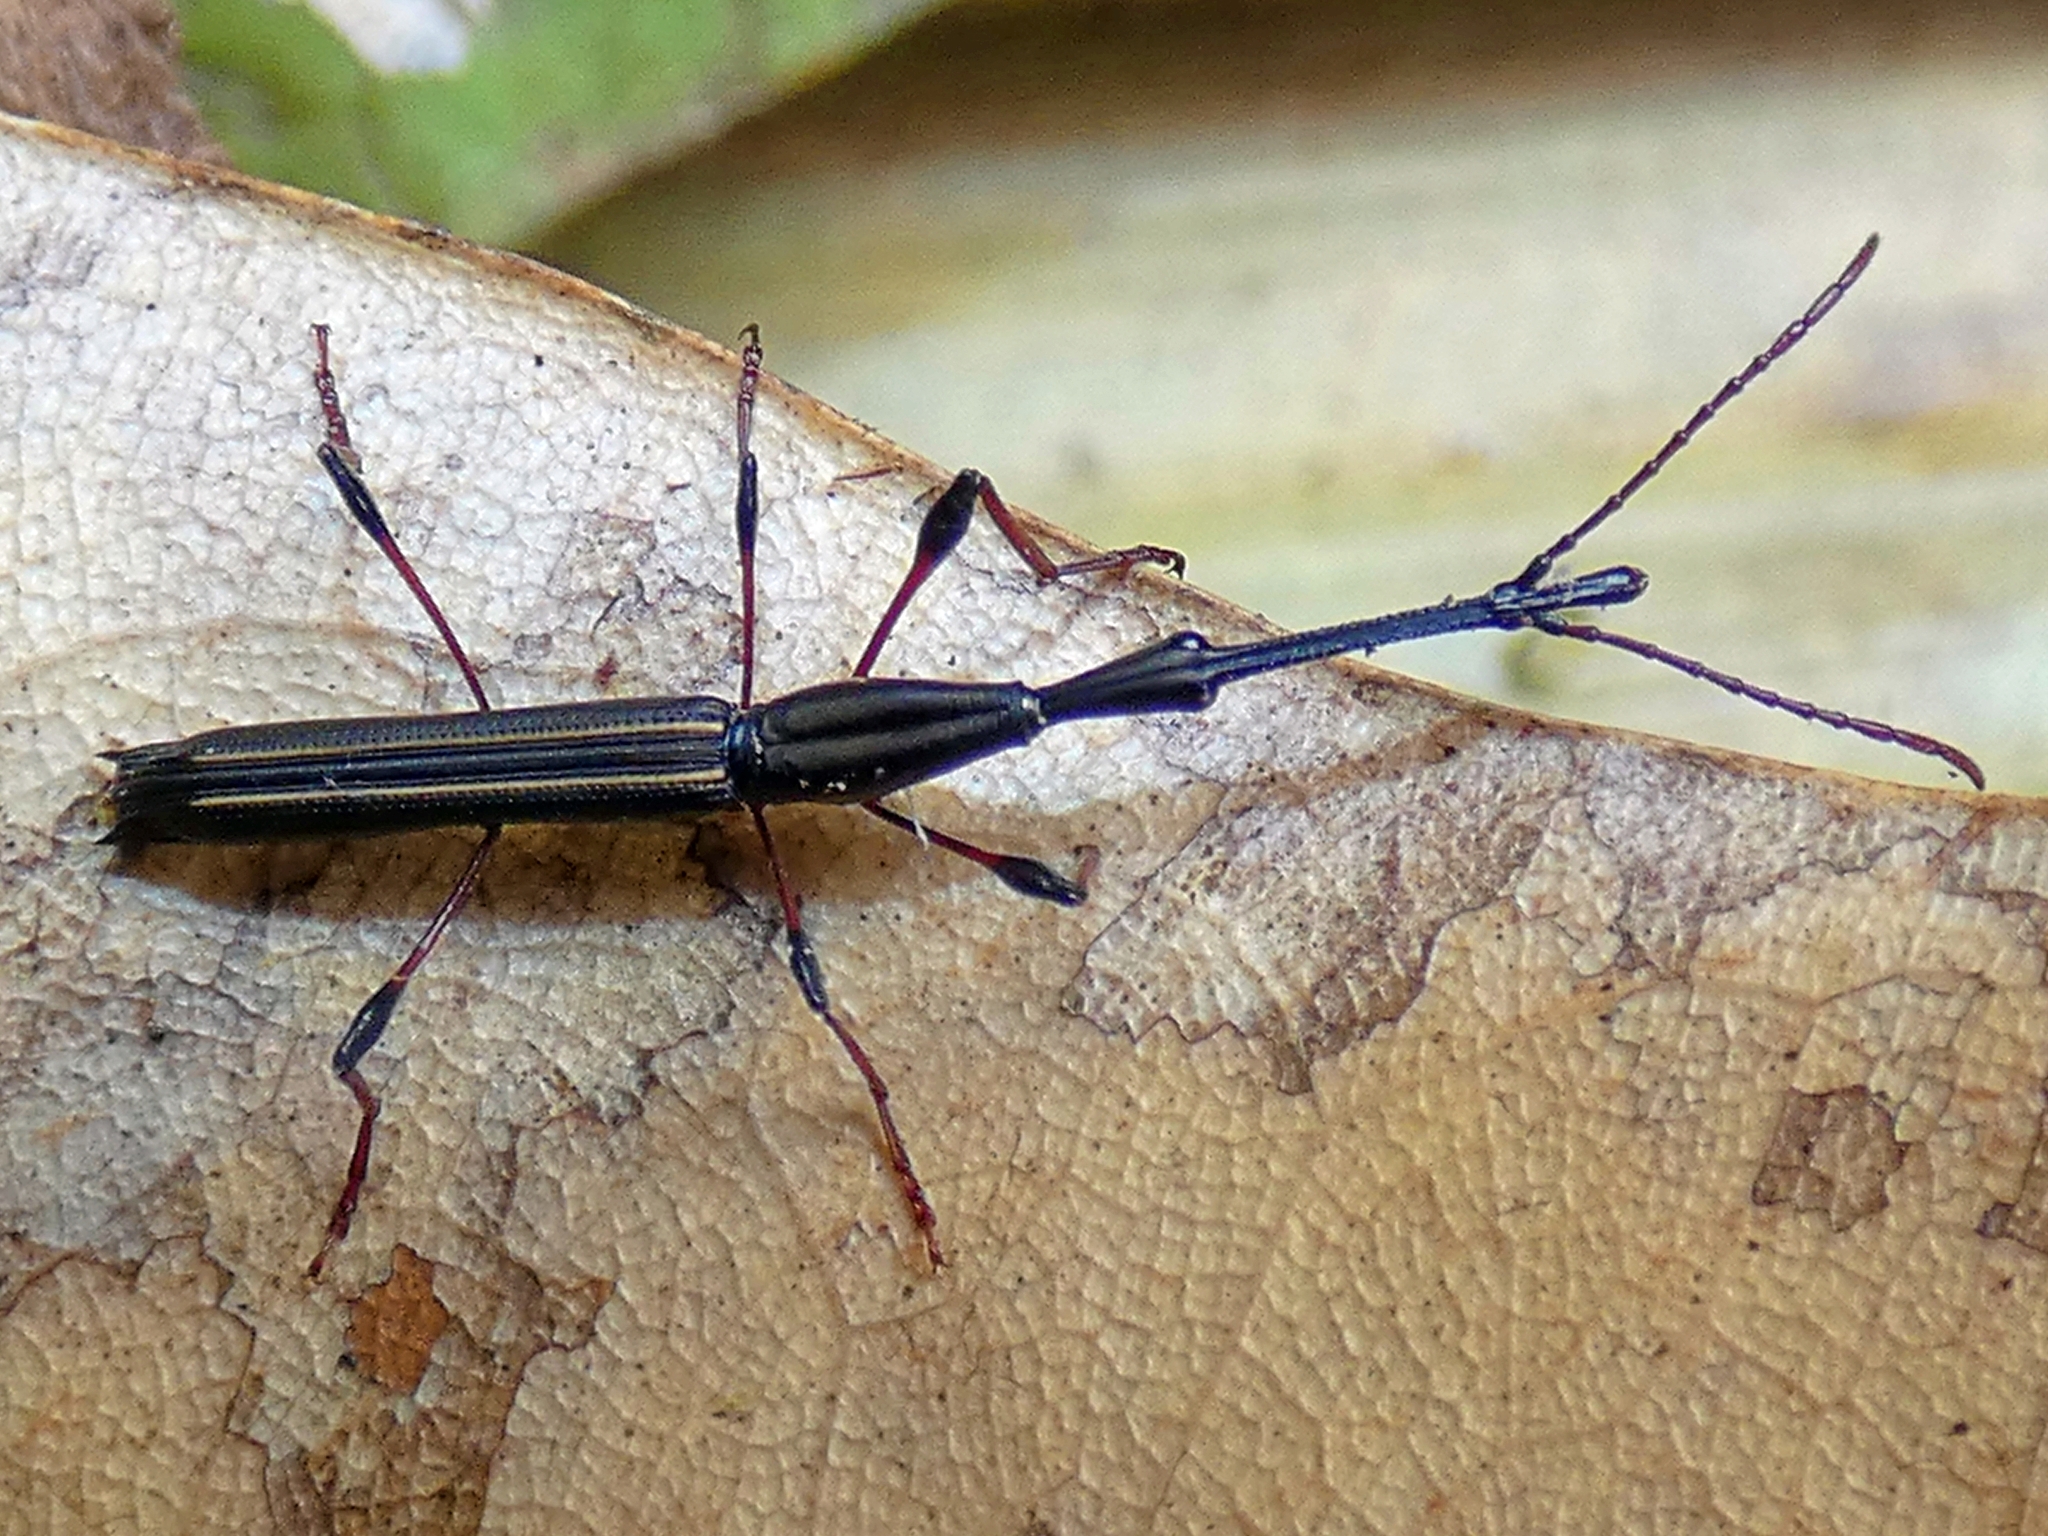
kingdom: Animalia
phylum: Arthropoda
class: Insecta
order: Coleoptera
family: Brentidae
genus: Ithystenus
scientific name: Ithystenus hollandiae
